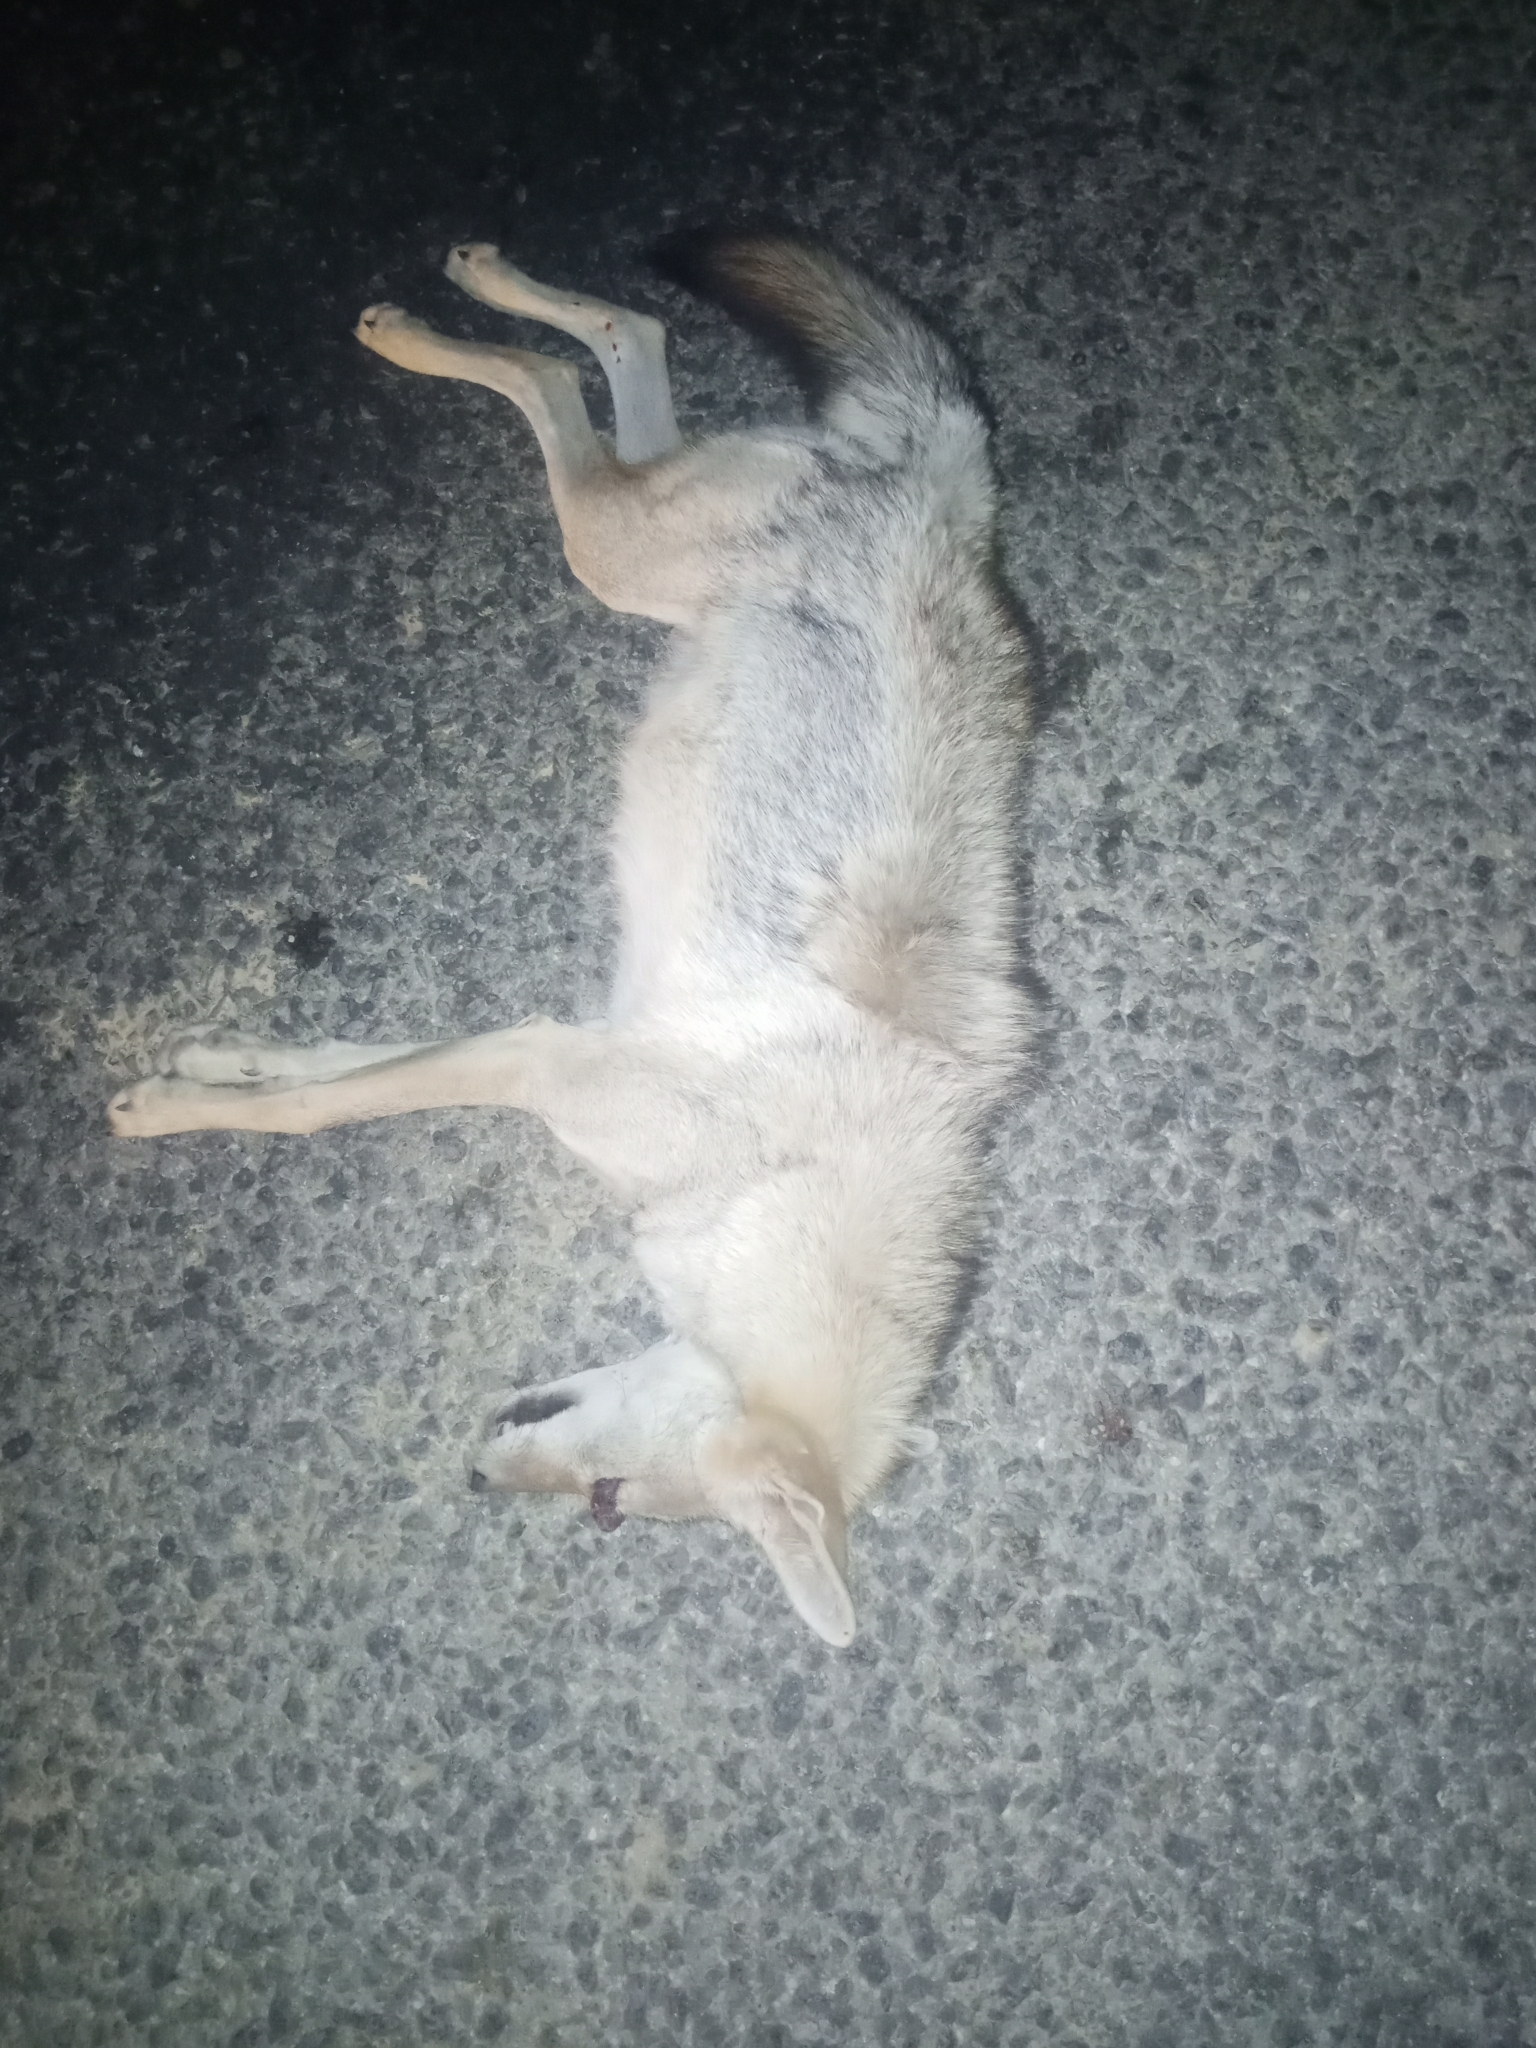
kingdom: Animalia
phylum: Chordata
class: Mammalia
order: Carnivora
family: Canidae
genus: Canis
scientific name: Canis lupaster
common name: African golden wolf
